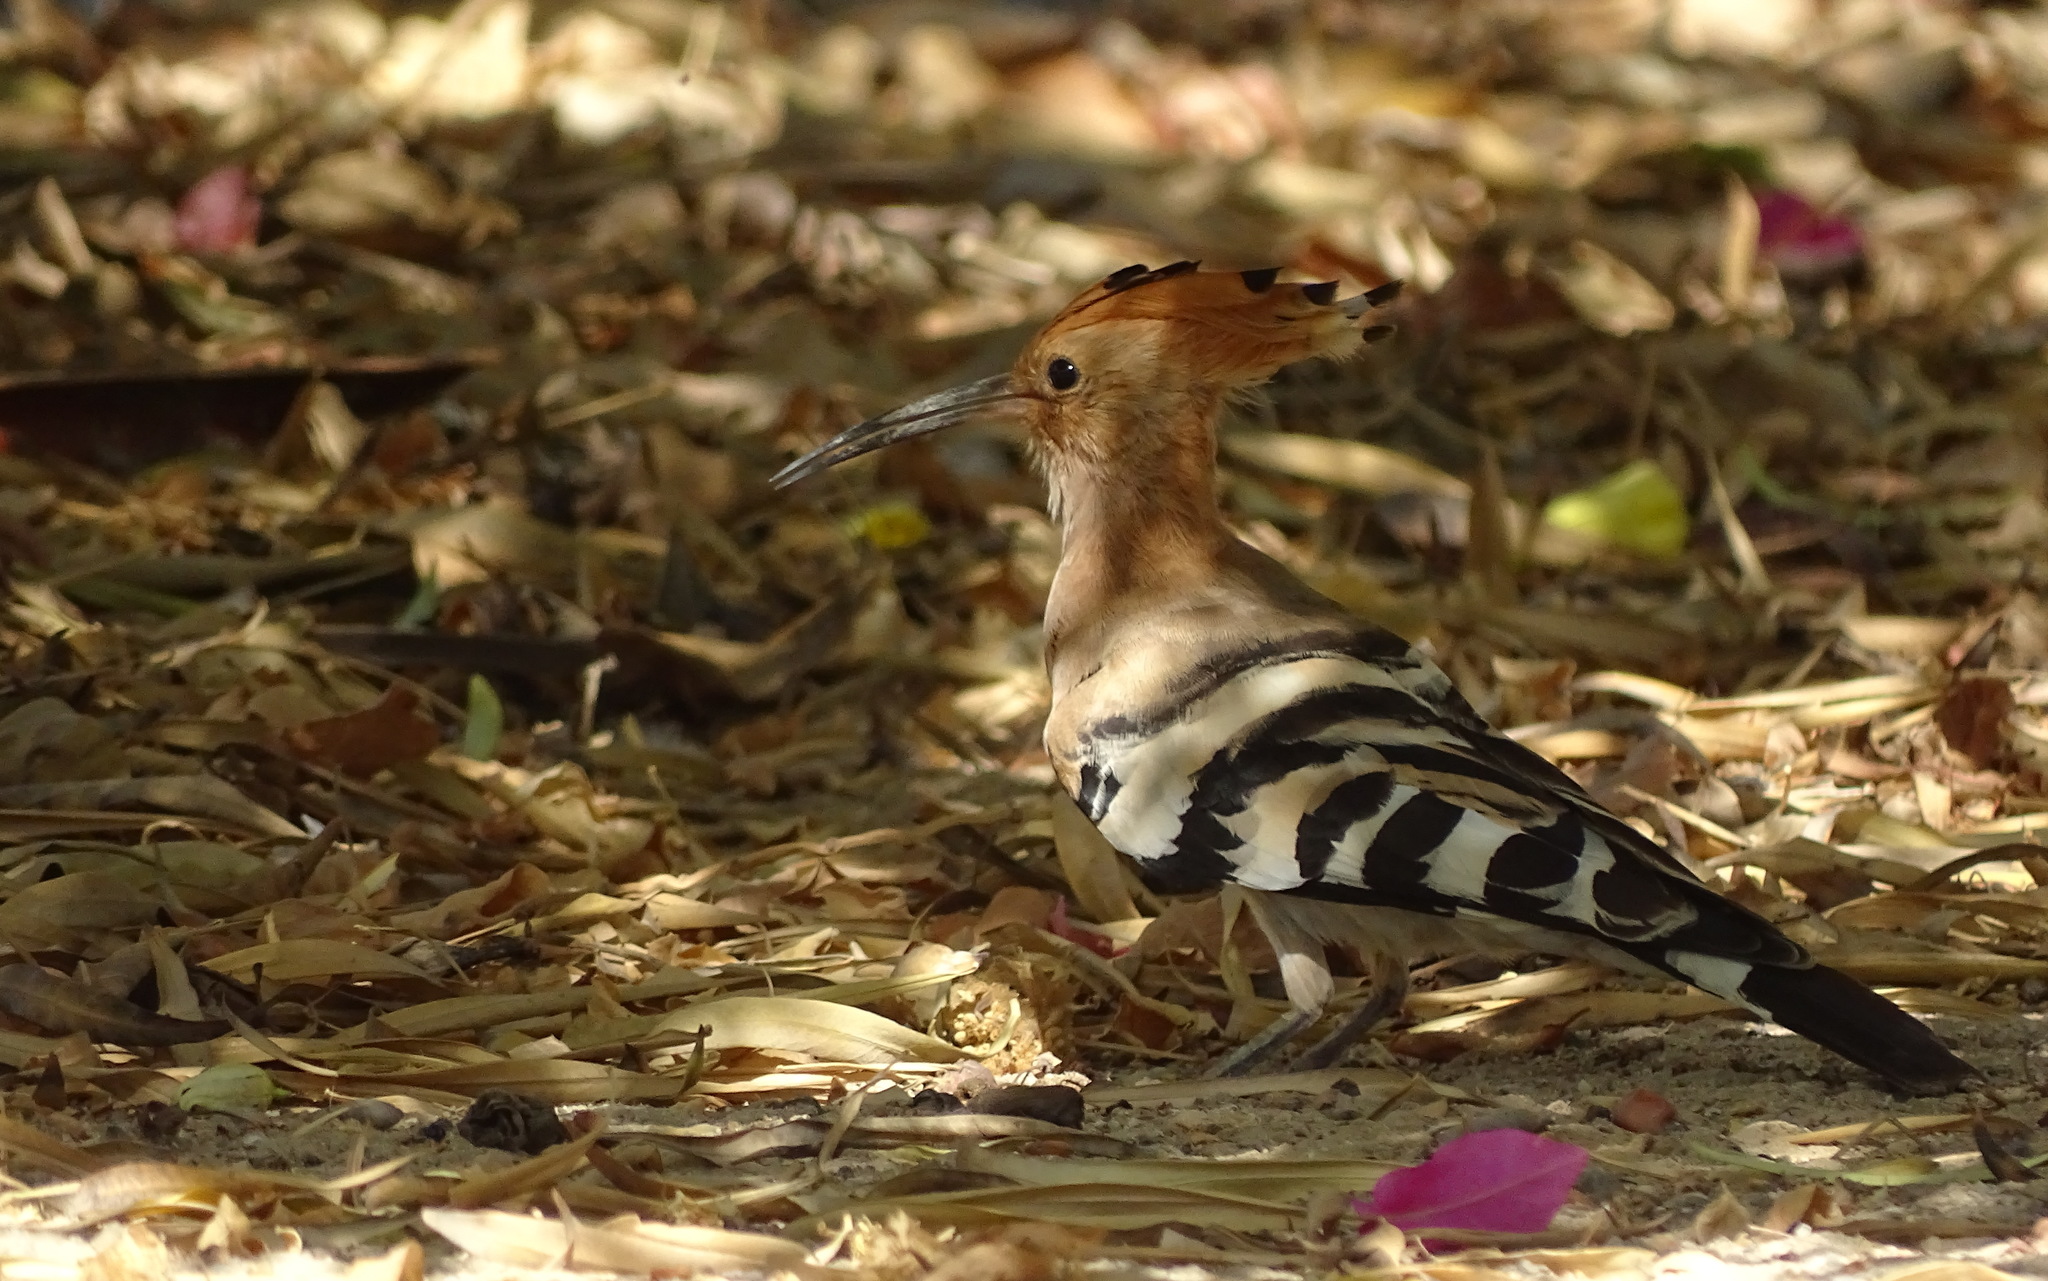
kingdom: Animalia
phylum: Chordata
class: Aves
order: Bucerotiformes
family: Upupidae
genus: Upupa
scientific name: Upupa epops
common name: Eurasian hoopoe
